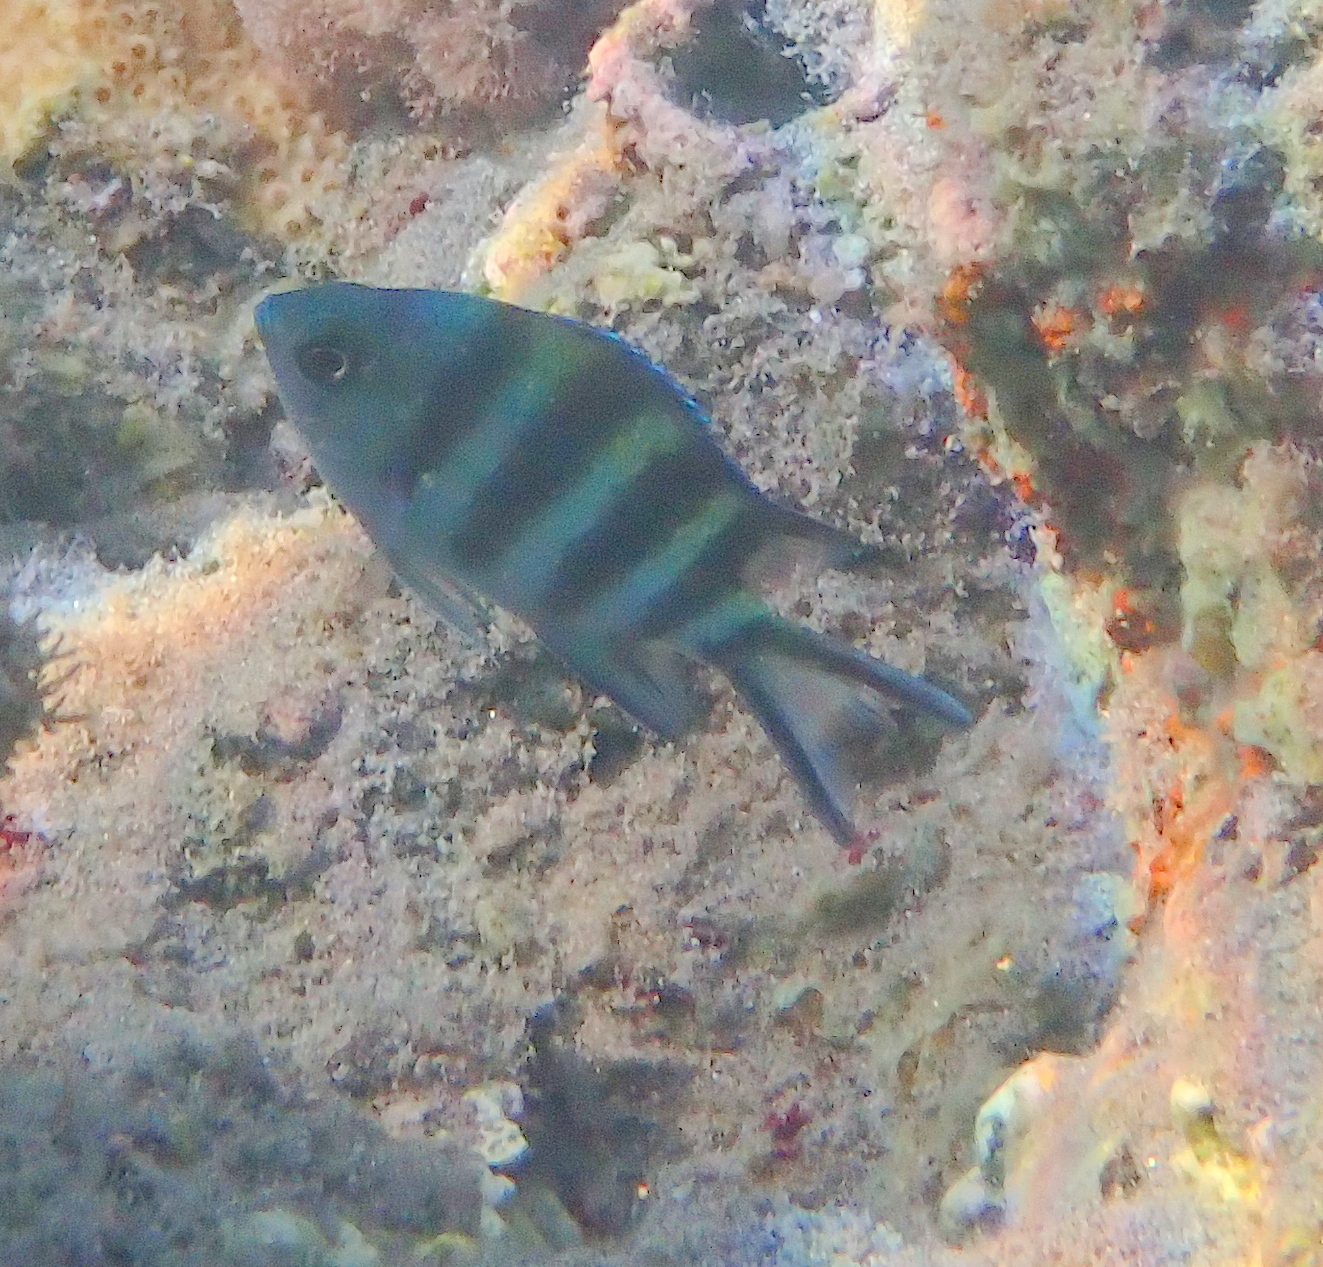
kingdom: Animalia
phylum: Chordata
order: Perciformes
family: Pomacentridae
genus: Abudefduf
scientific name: Abudefduf sexfasciatus
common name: Scissortail sergeant
